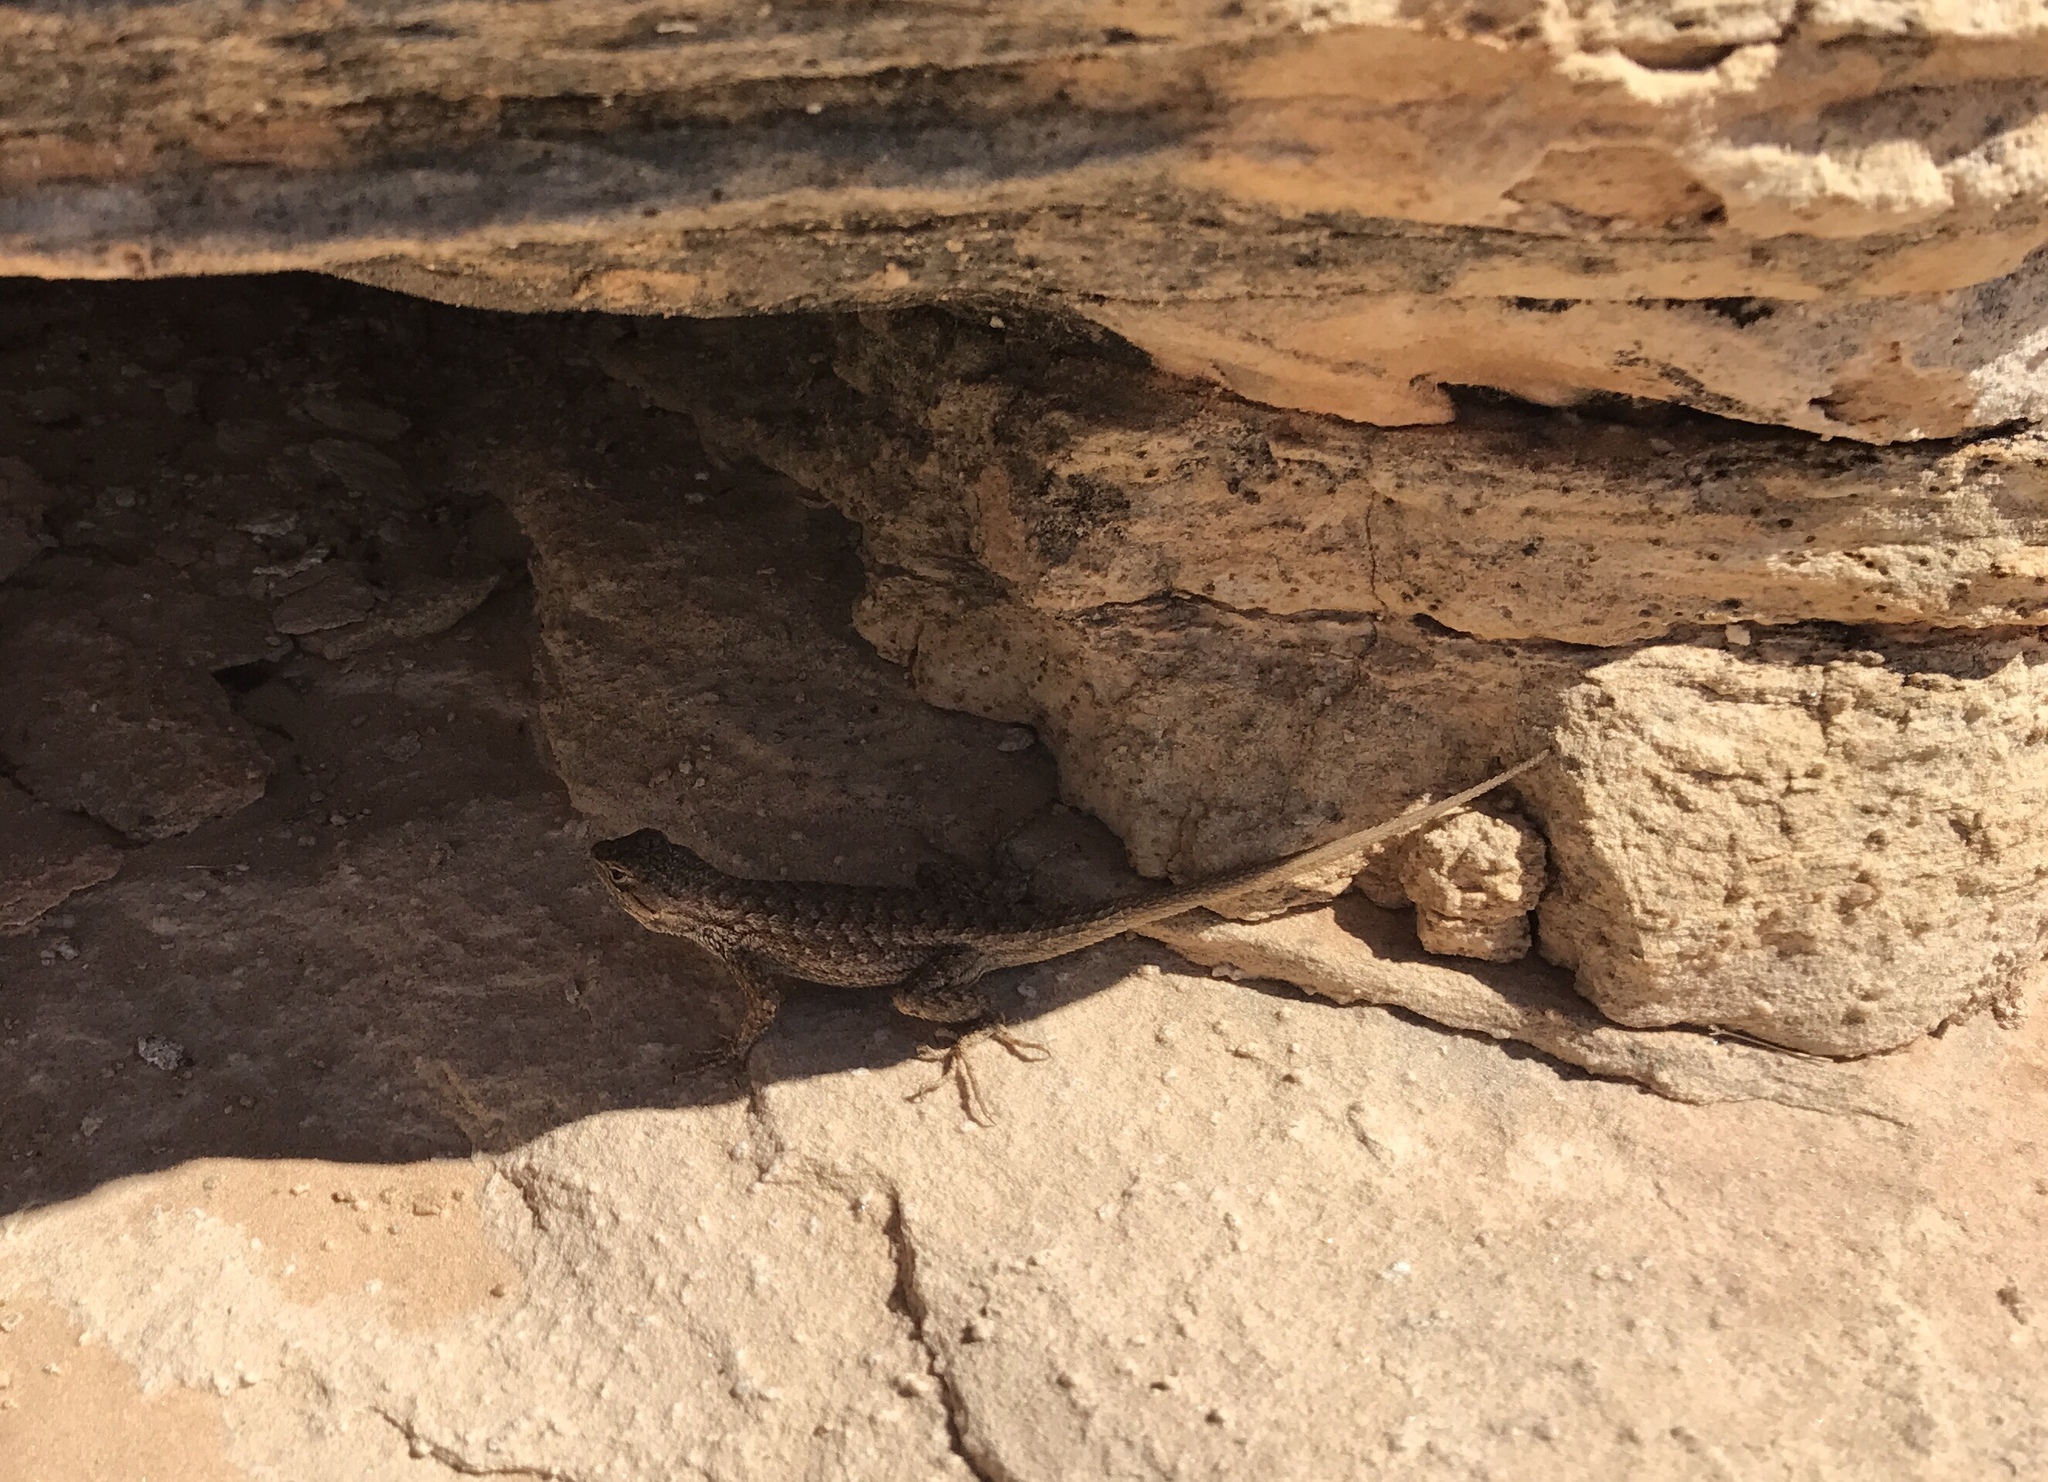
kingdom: Animalia
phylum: Chordata
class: Squamata
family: Phrynosomatidae
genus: Sceloporus
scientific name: Sceloporus tristichus
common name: Plateau fence lizard
